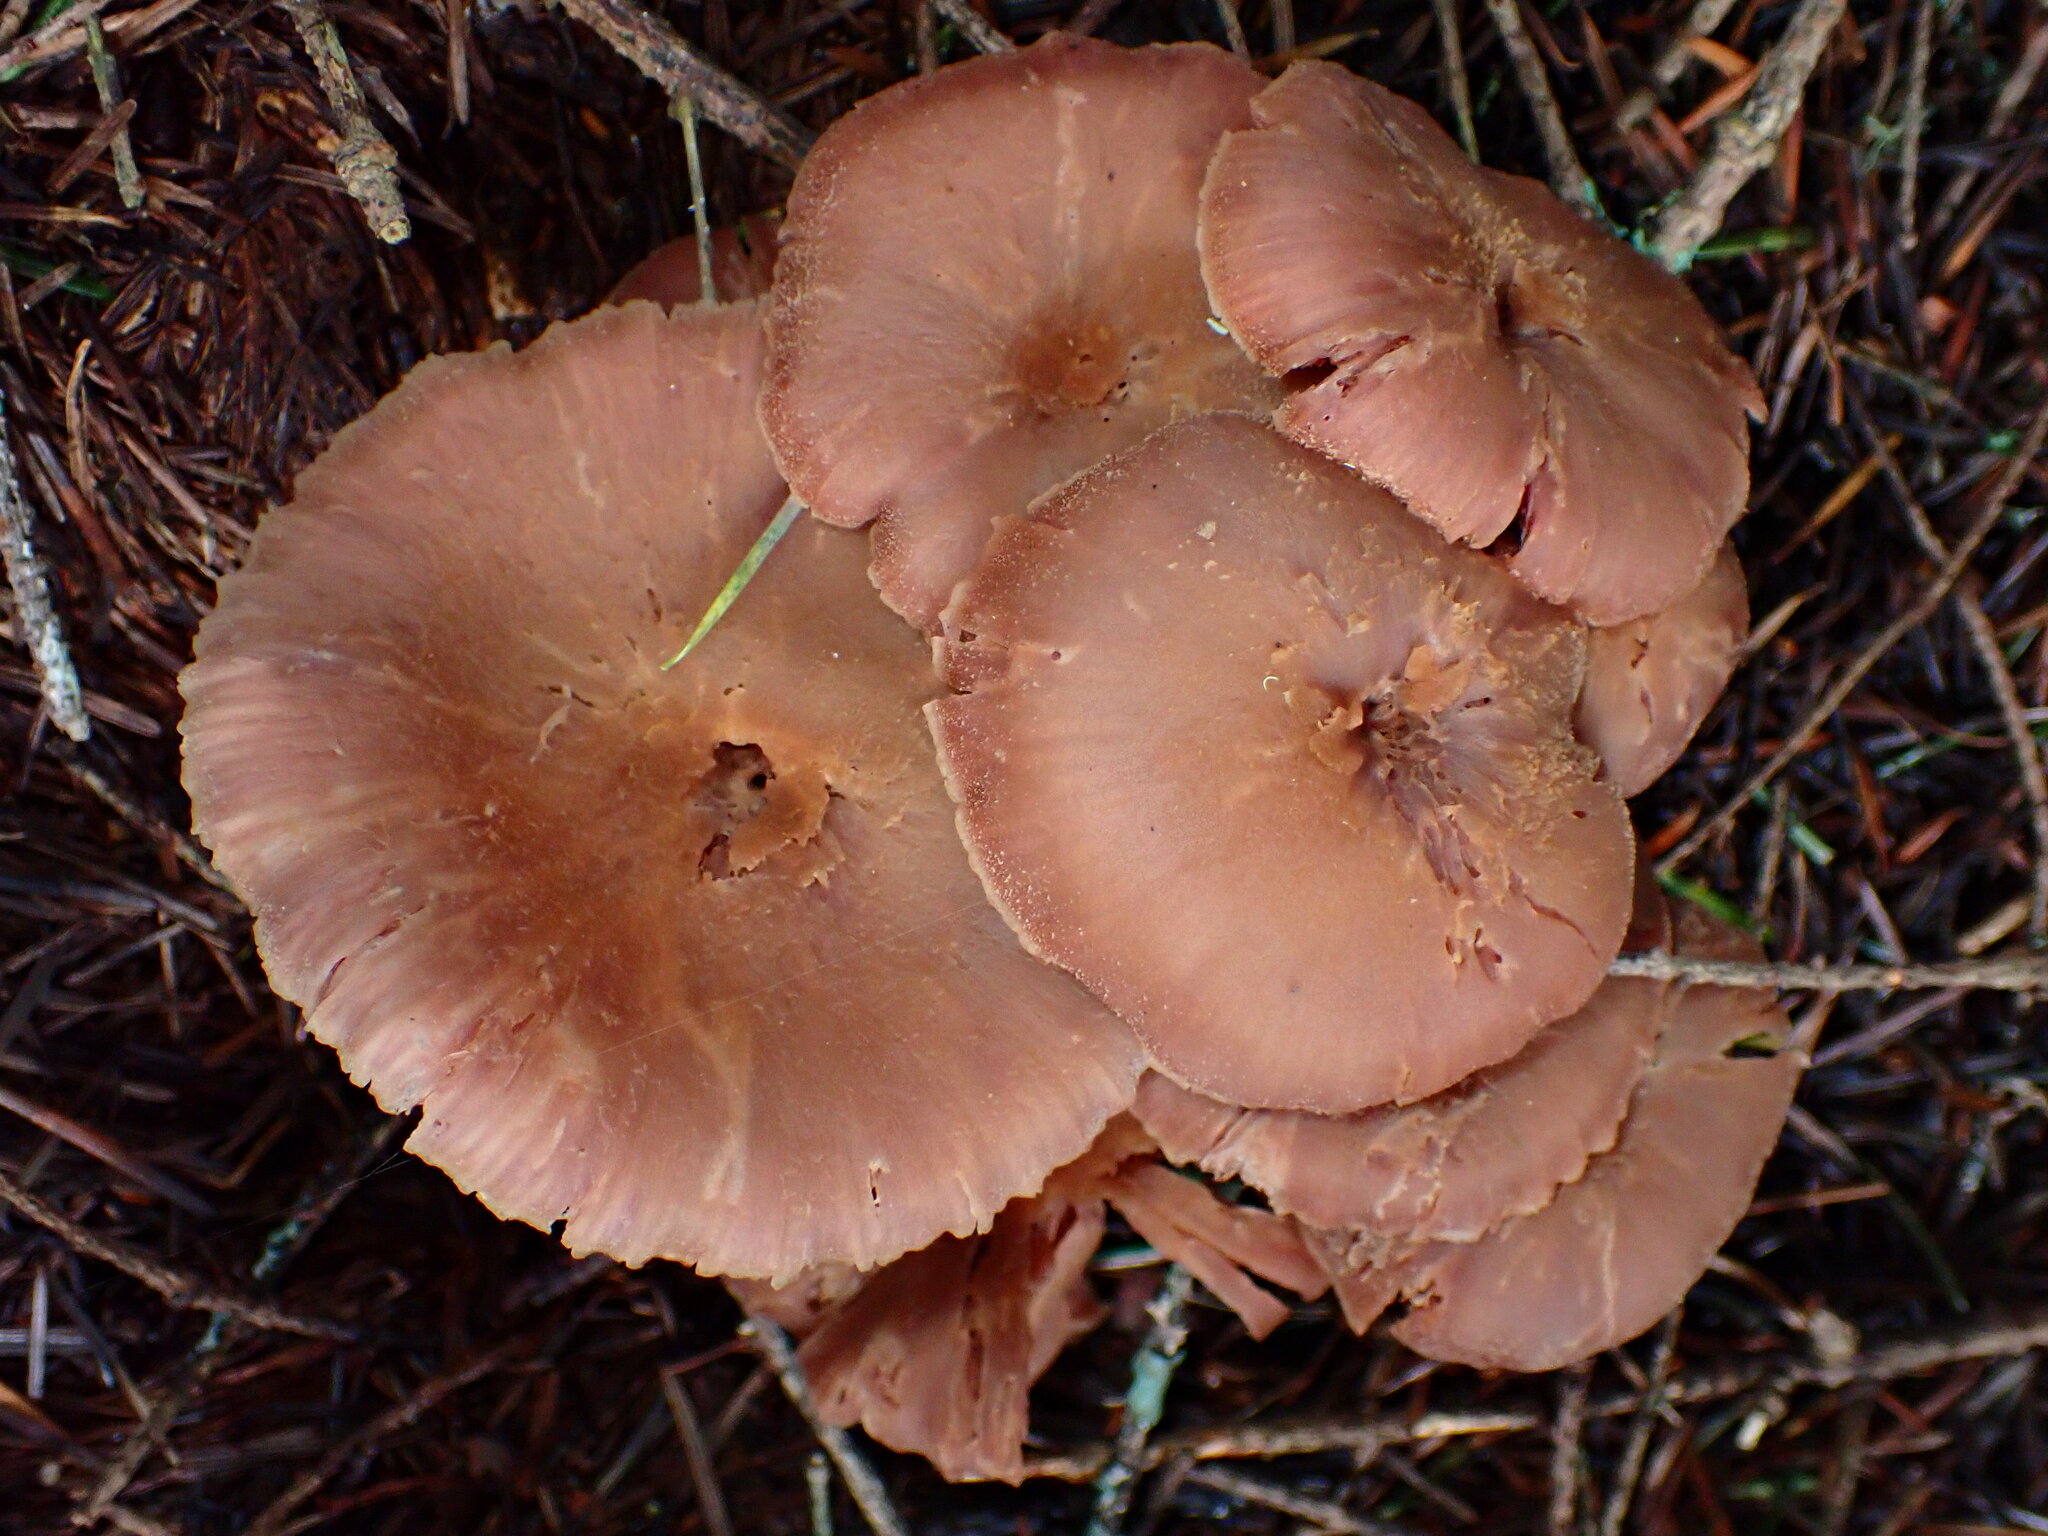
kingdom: Fungi
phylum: Basidiomycota
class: Agaricomycetes
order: Agaricales
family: Hydnangiaceae
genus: Laccaria
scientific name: Laccaria amethysteo-occidentalis
